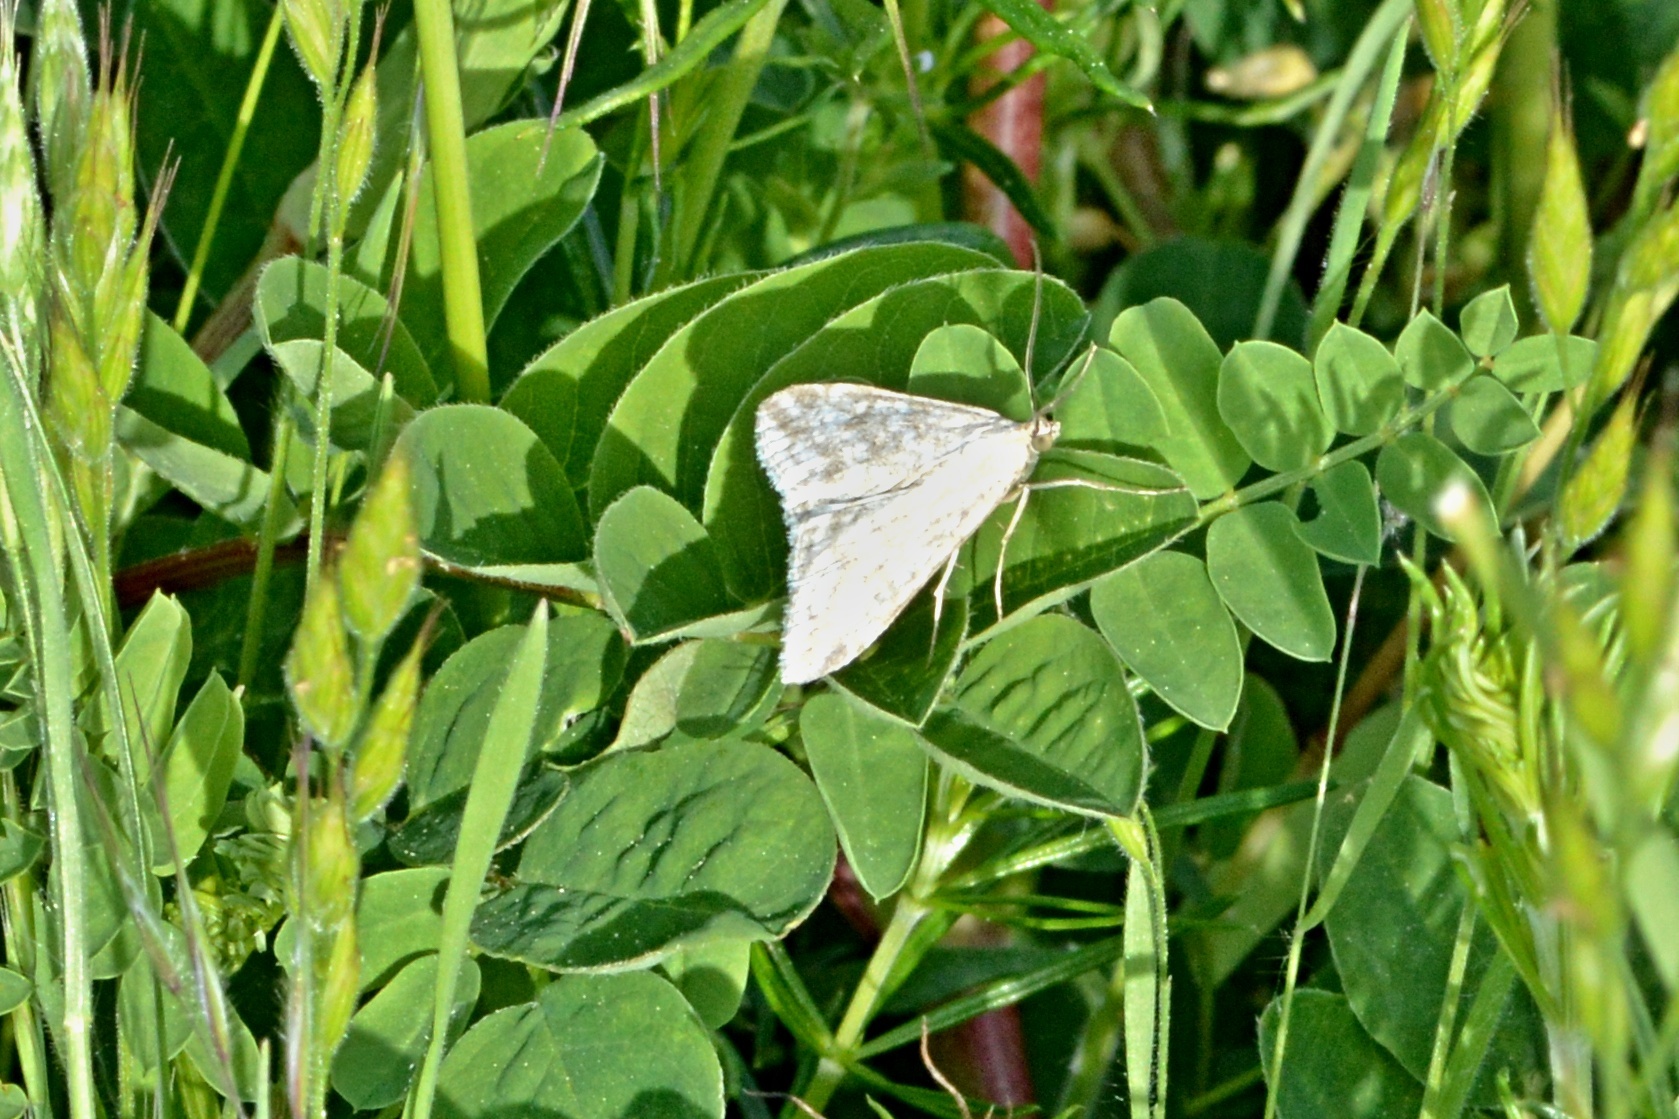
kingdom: Animalia
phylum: Arthropoda
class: Insecta
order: Lepidoptera
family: Crambidae
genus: Sitochroa
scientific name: Sitochroa verticalis
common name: Lesser pearl
